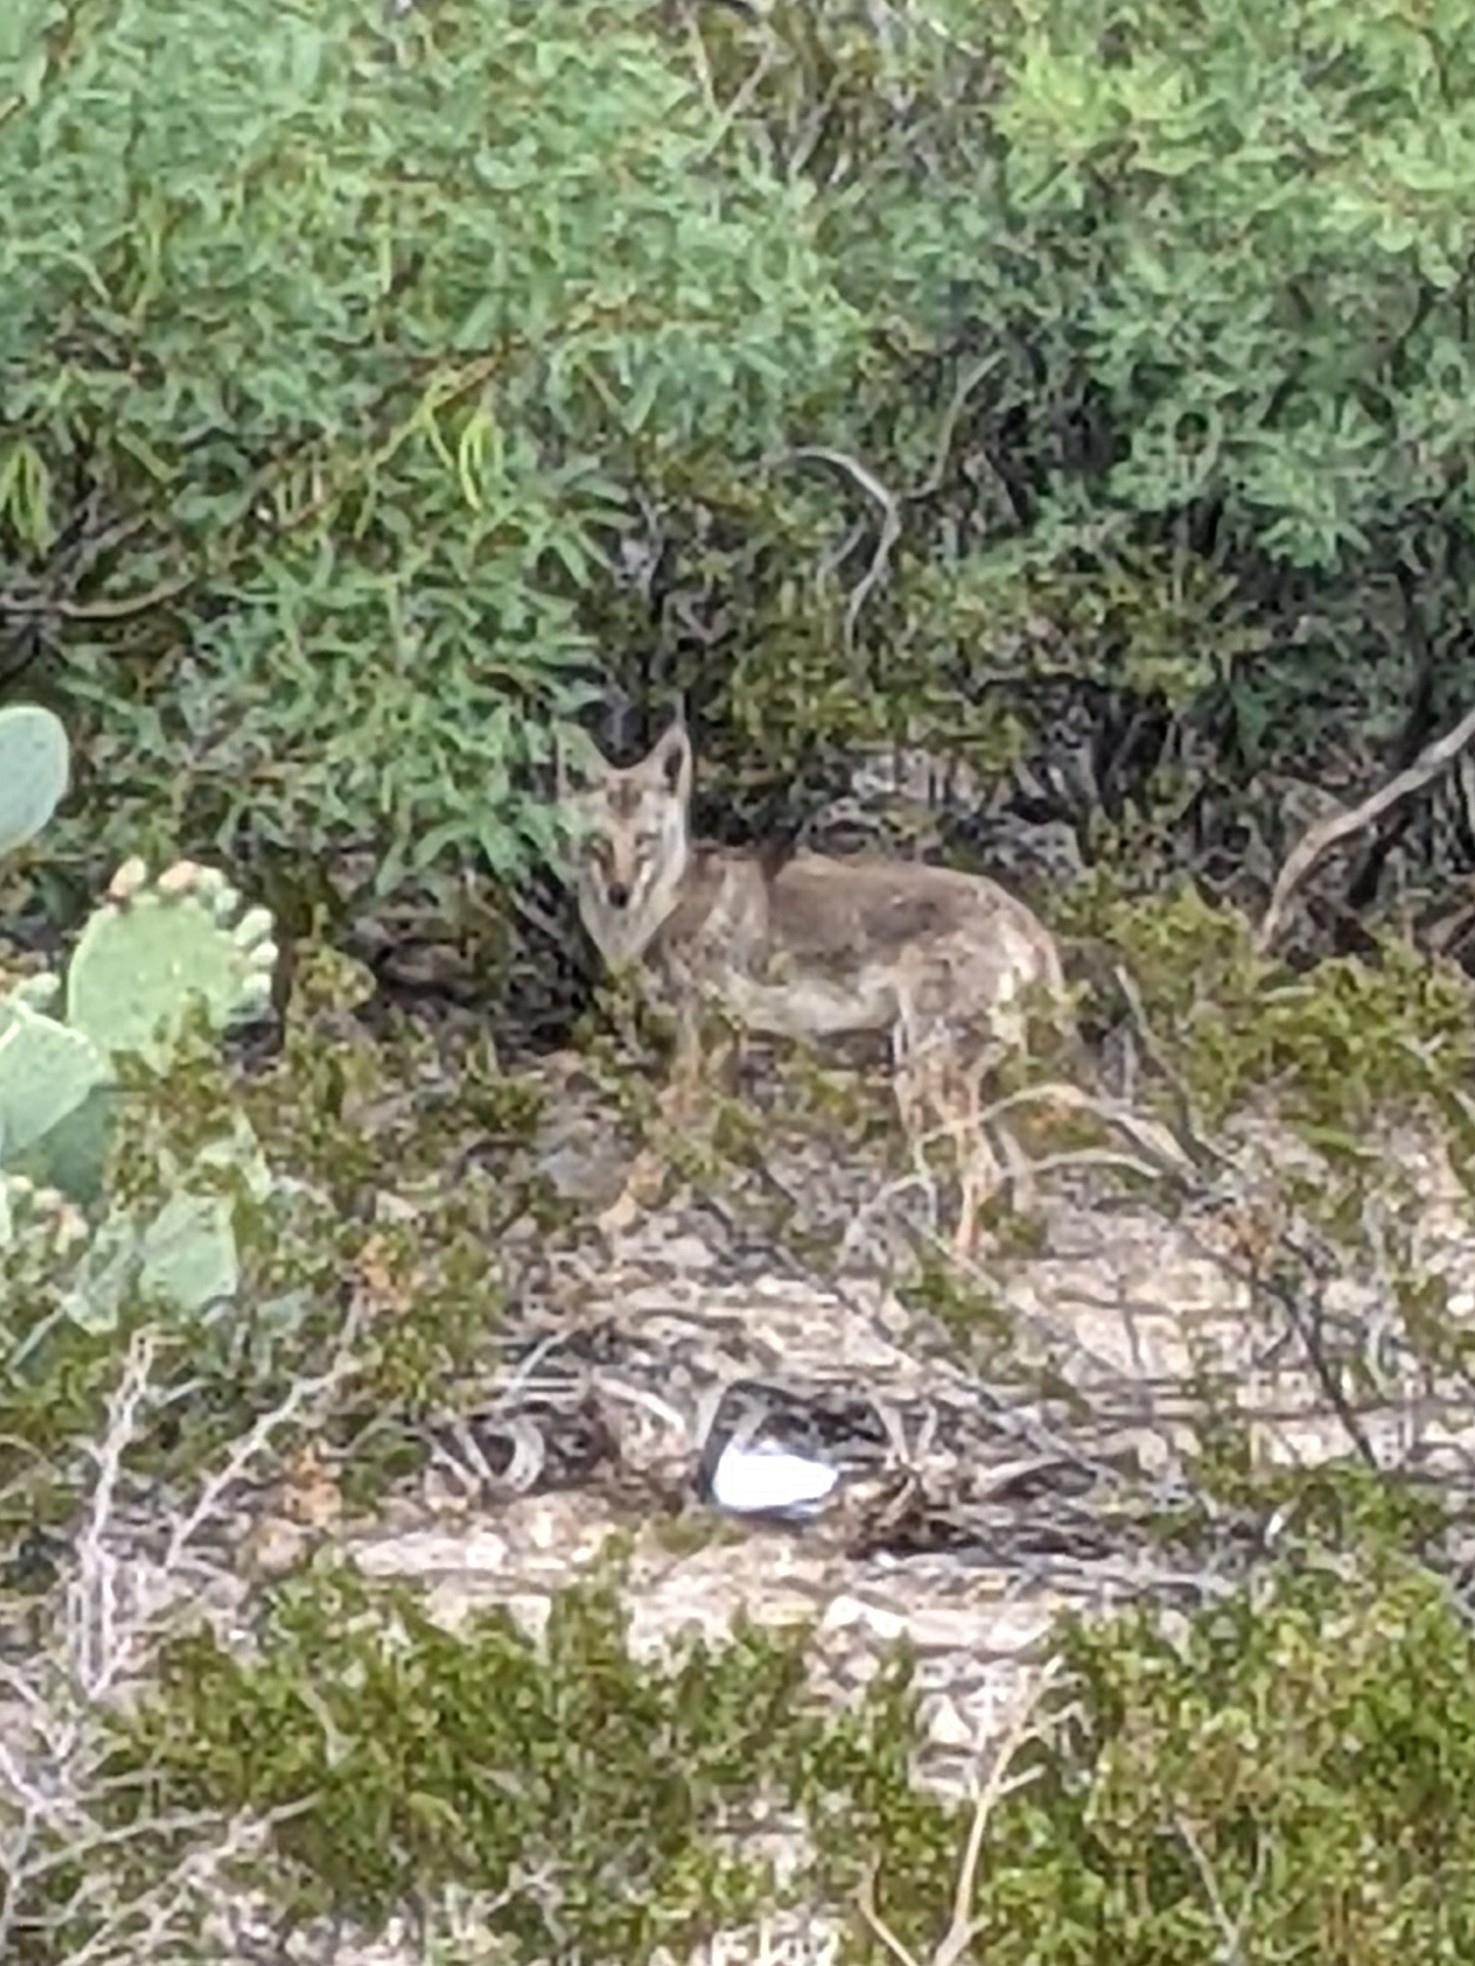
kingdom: Animalia
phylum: Chordata
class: Mammalia
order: Carnivora
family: Canidae
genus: Canis
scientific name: Canis latrans
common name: Coyote
